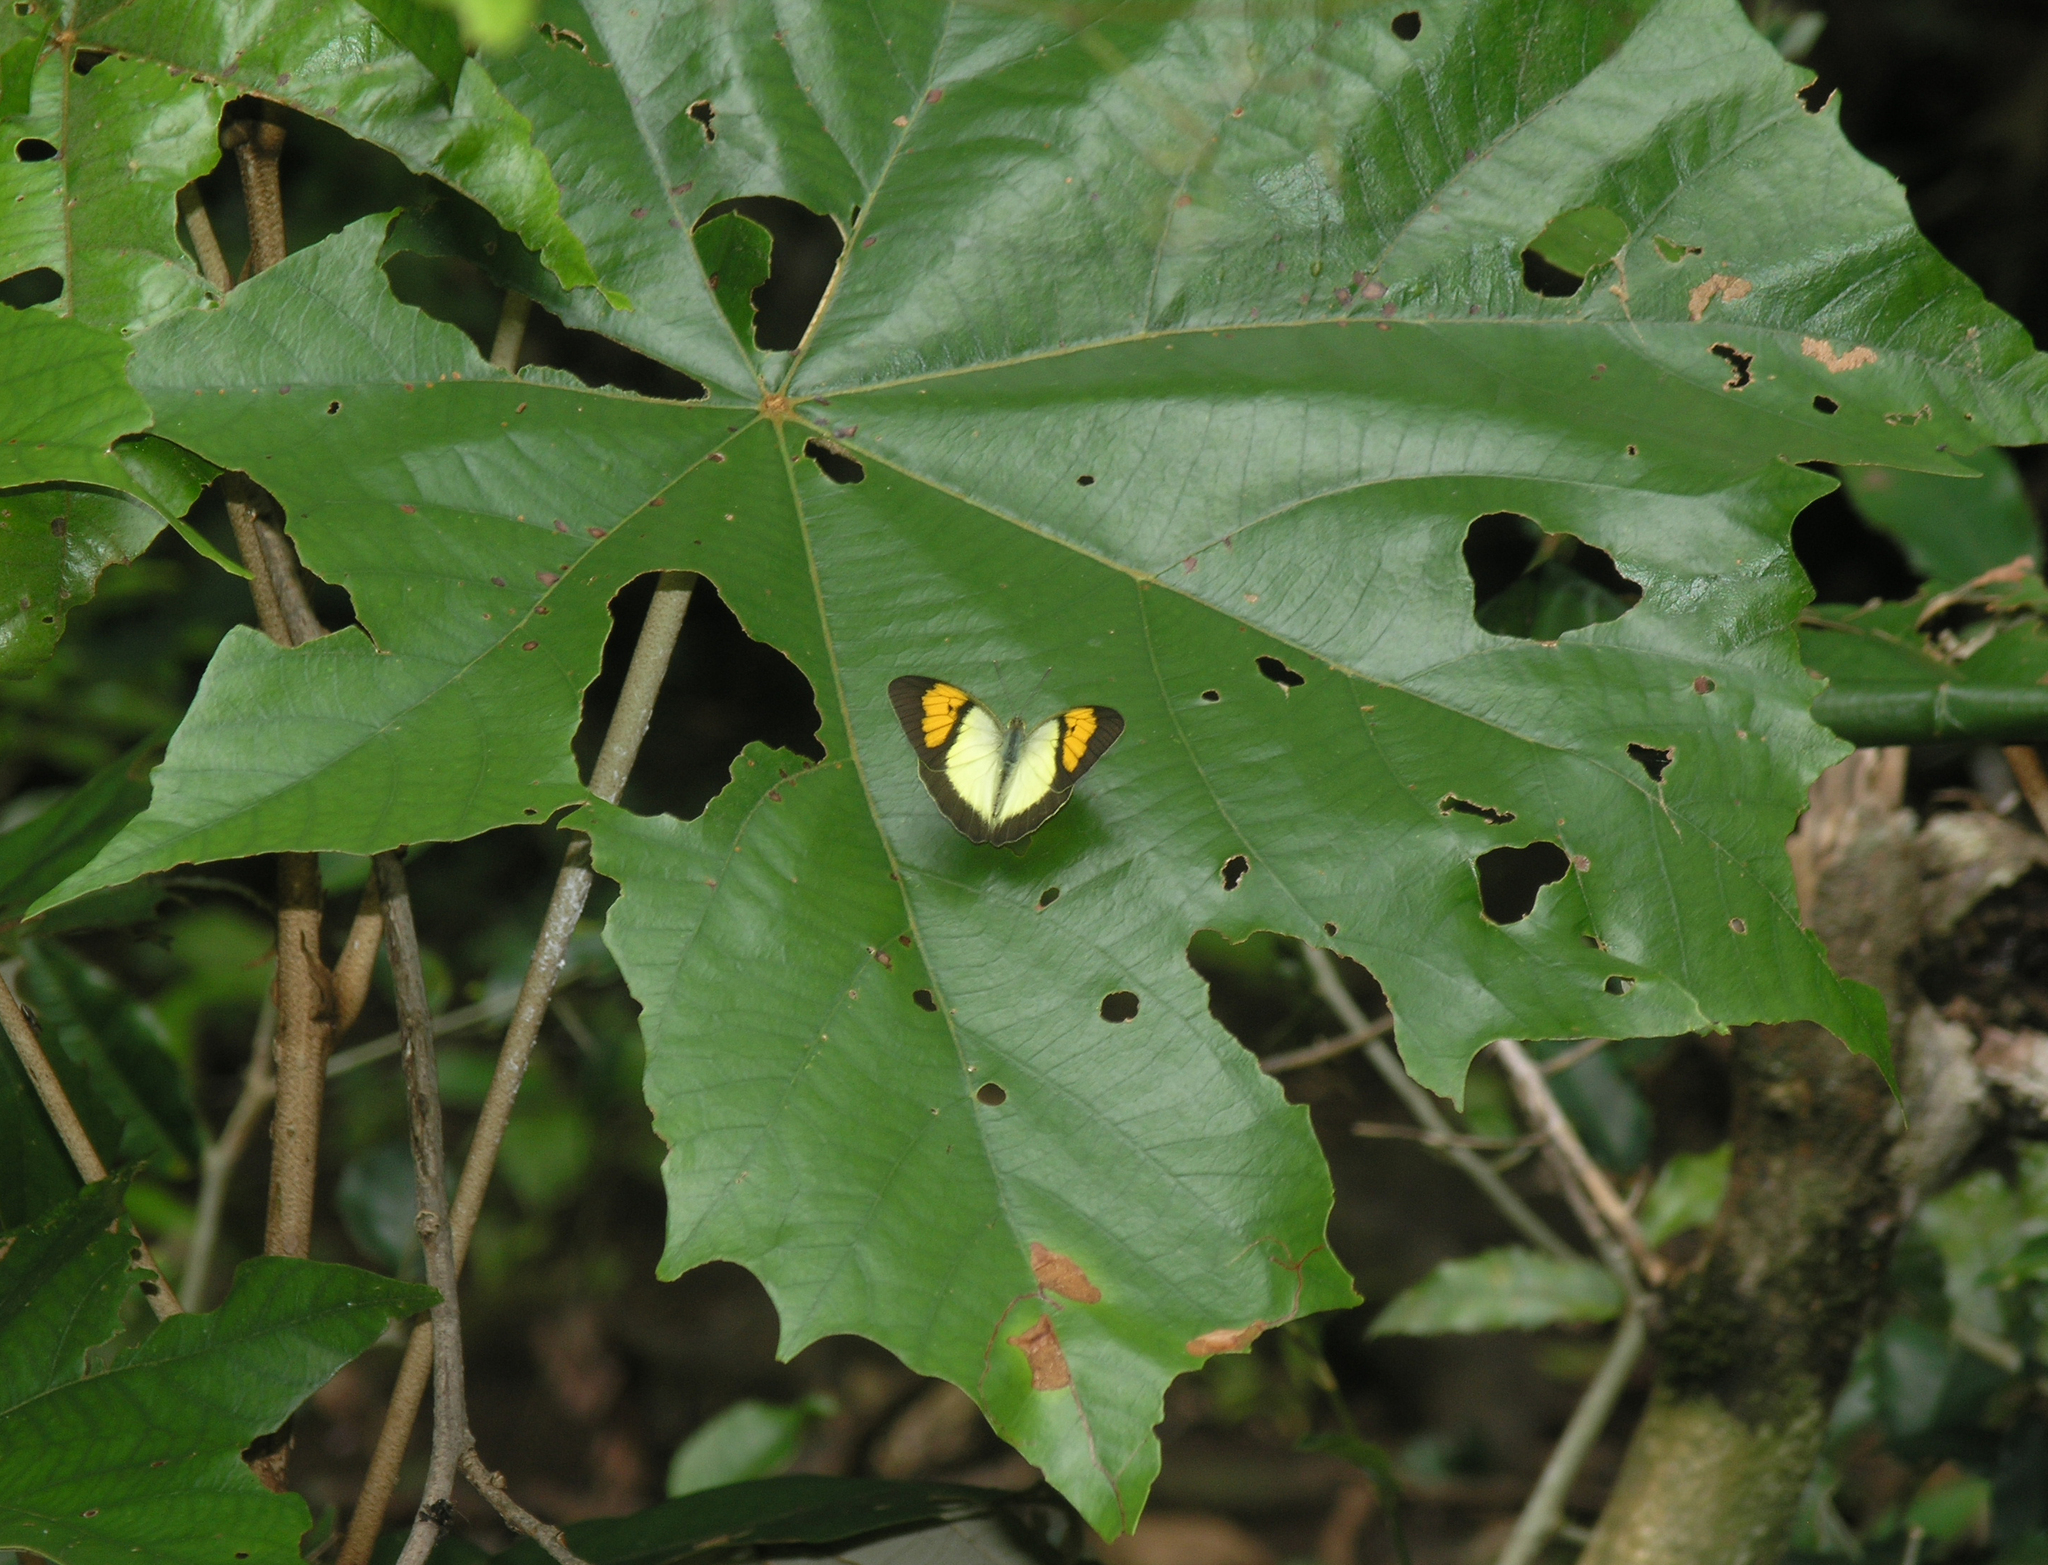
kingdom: Animalia
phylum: Arthropoda
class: Insecta
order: Lepidoptera
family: Pieridae
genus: Ixias
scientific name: Ixias pyrene
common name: Yellow orange tip
